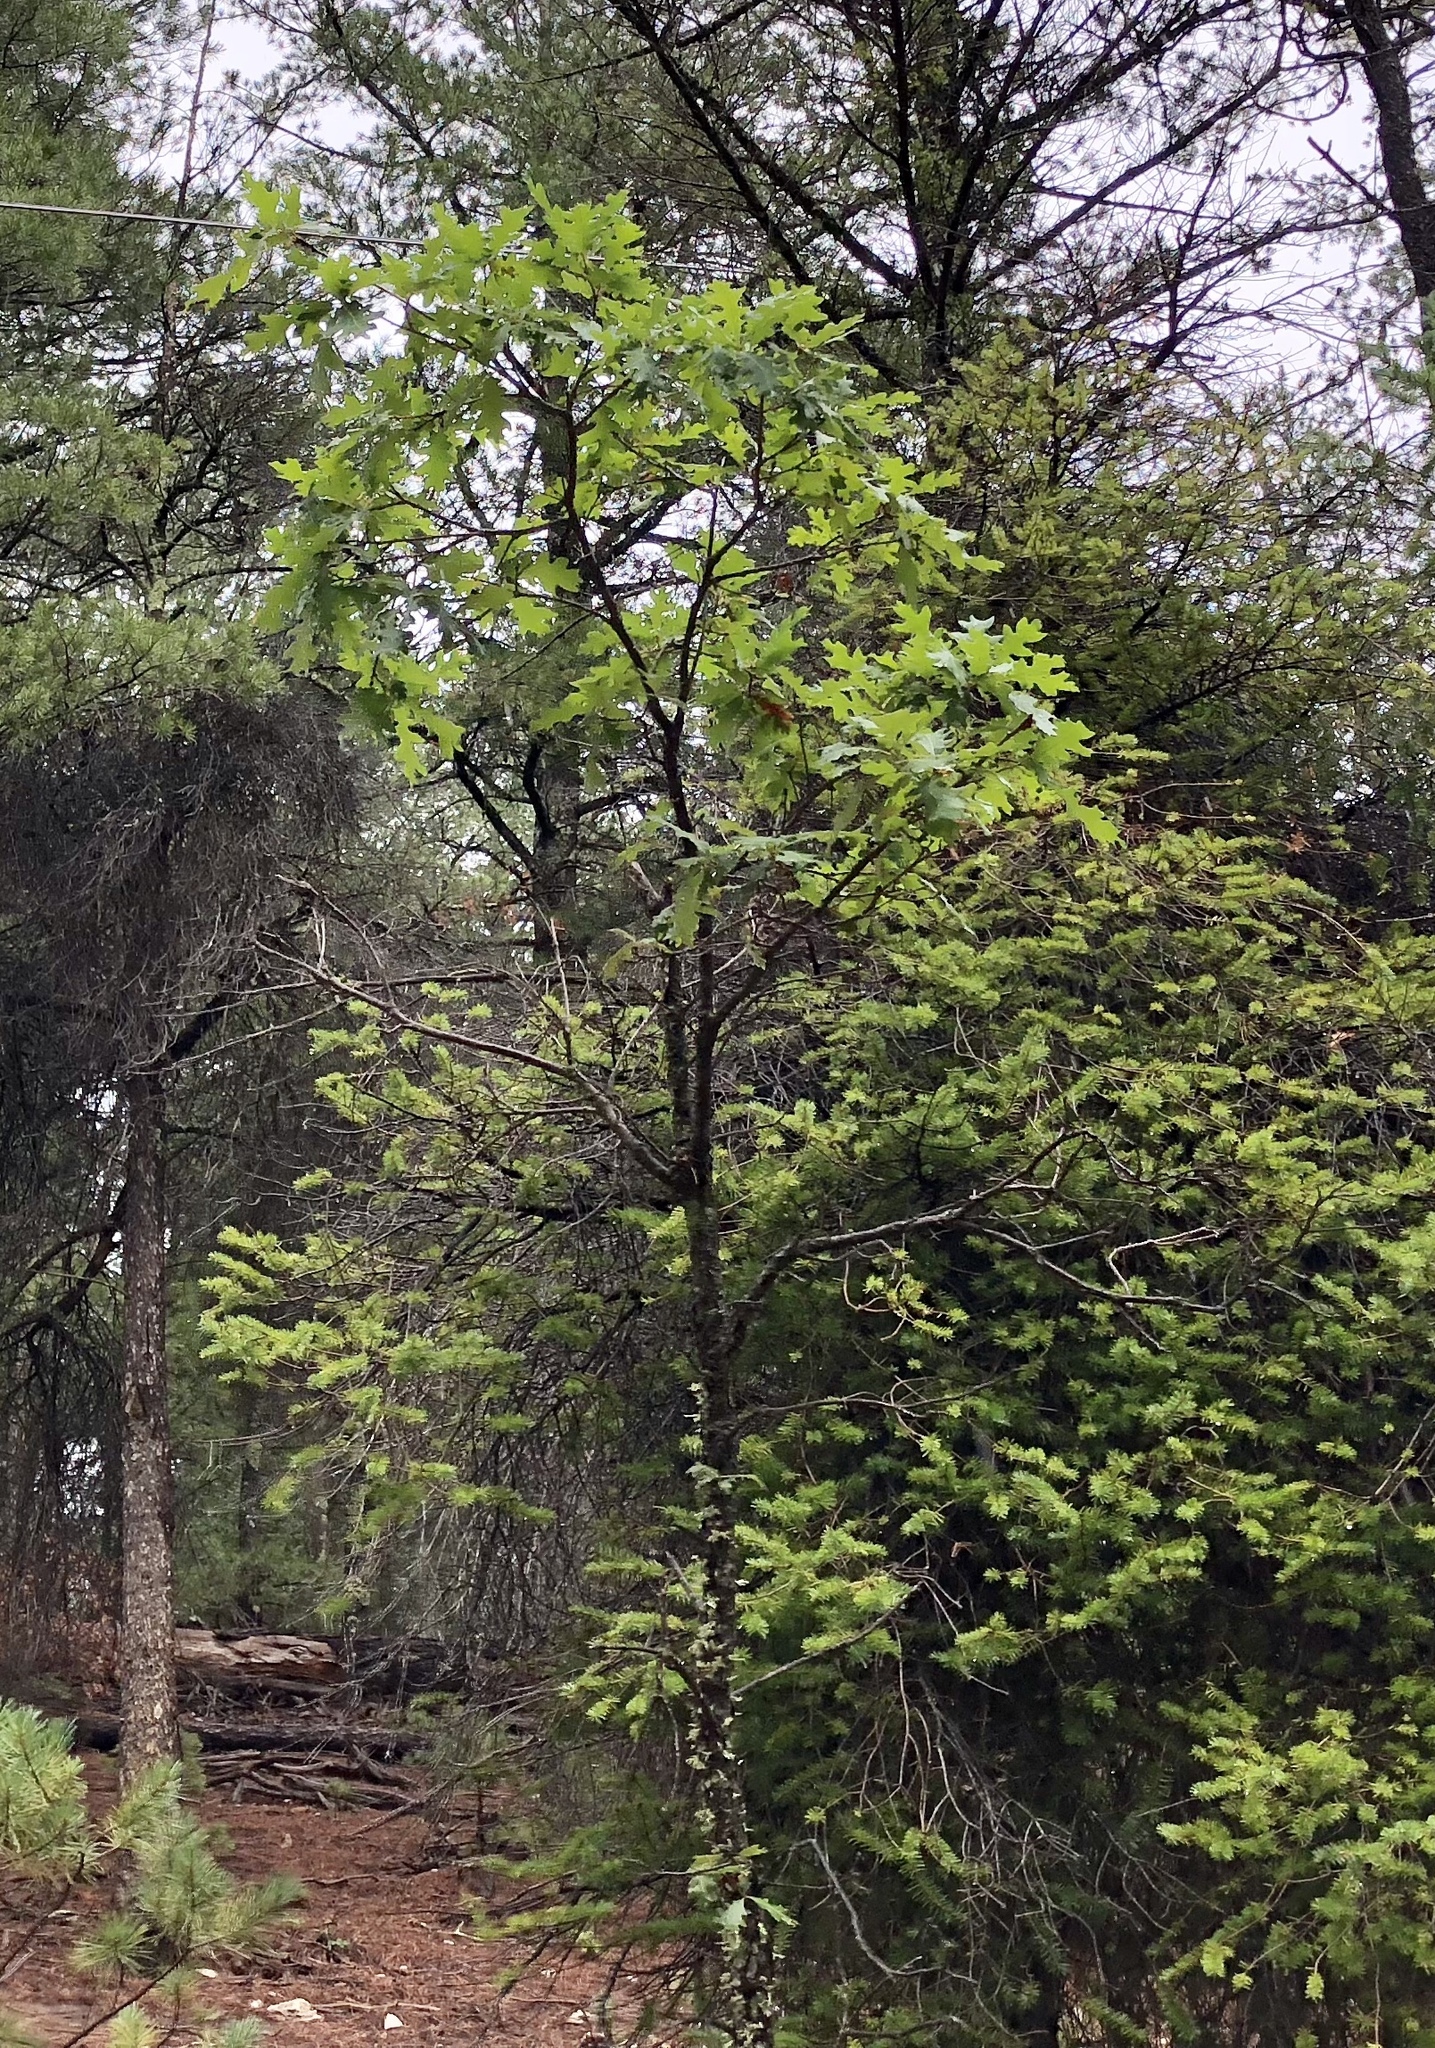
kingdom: Plantae
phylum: Tracheophyta
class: Magnoliopsida
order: Fagales
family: Fagaceae
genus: Quercus
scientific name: Quercus gambelii
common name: Gambel oak
